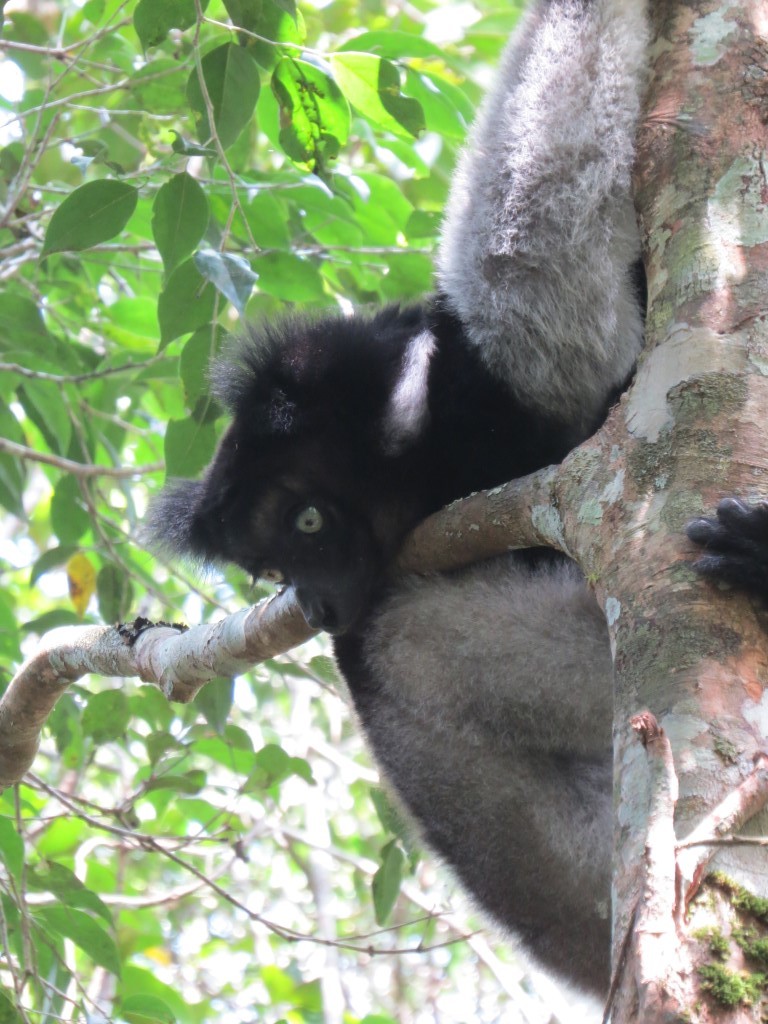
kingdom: Animalia
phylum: Chordata
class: Mammalia
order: Primates
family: Indriidae
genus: Indri
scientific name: Indri indri
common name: Indri
